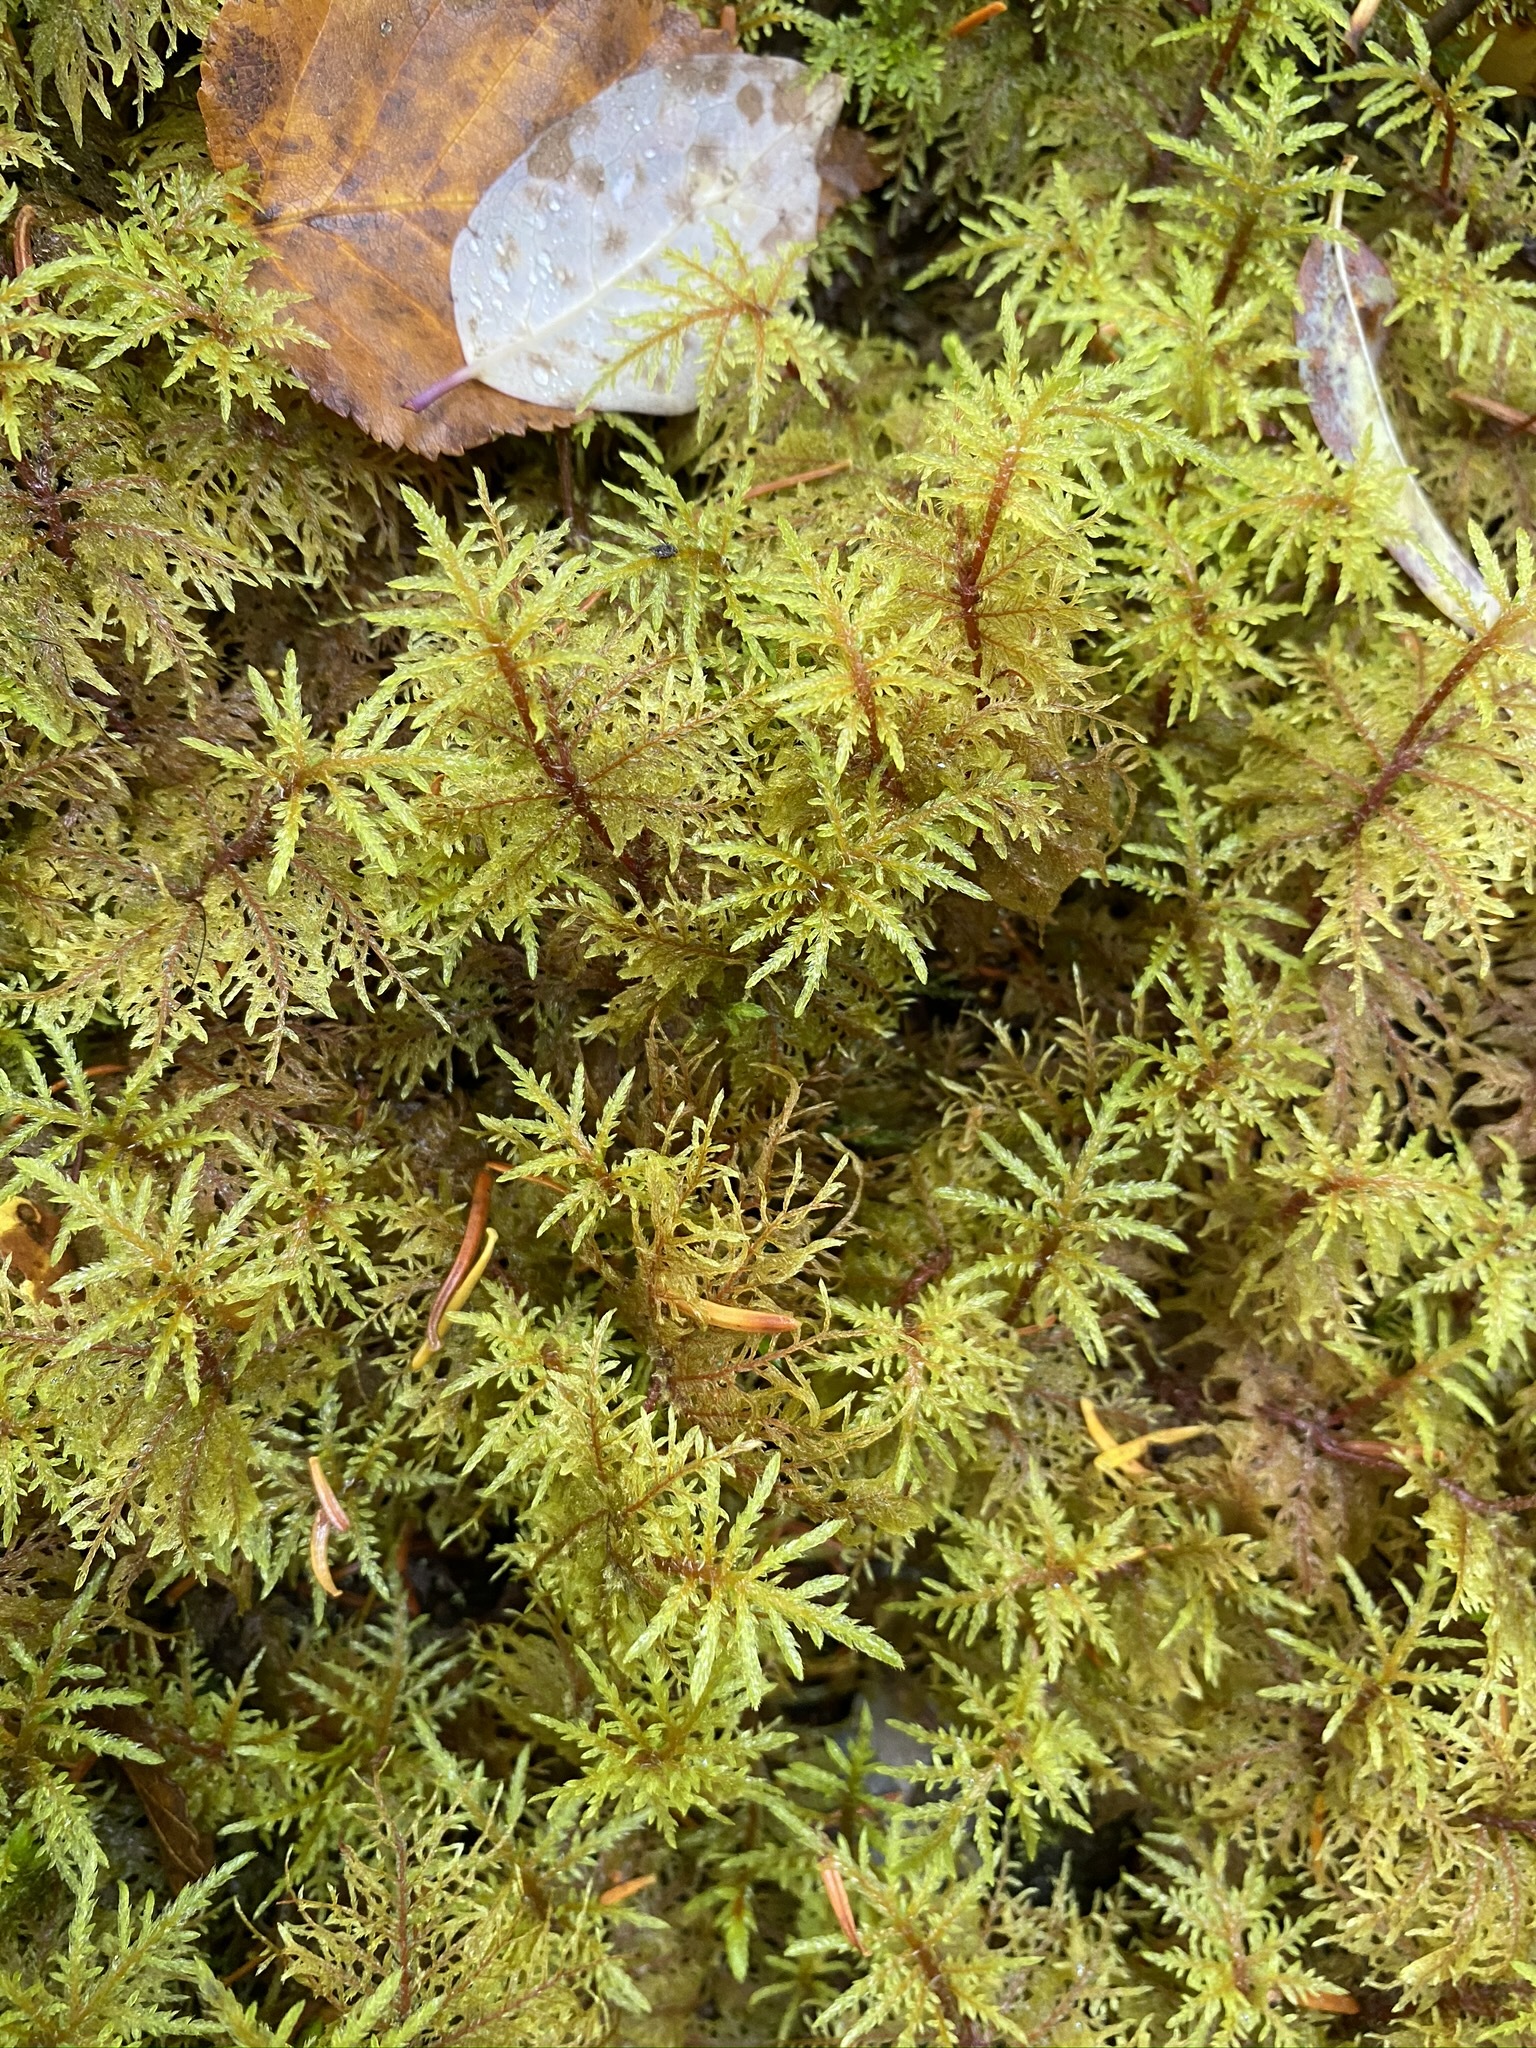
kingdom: Plantae
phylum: Bryophyta
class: Bryopsida
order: Hypnales
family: Hylocomiaceae
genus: Hylocomium
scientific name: Hylocomium splendens
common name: Stairstep moss
